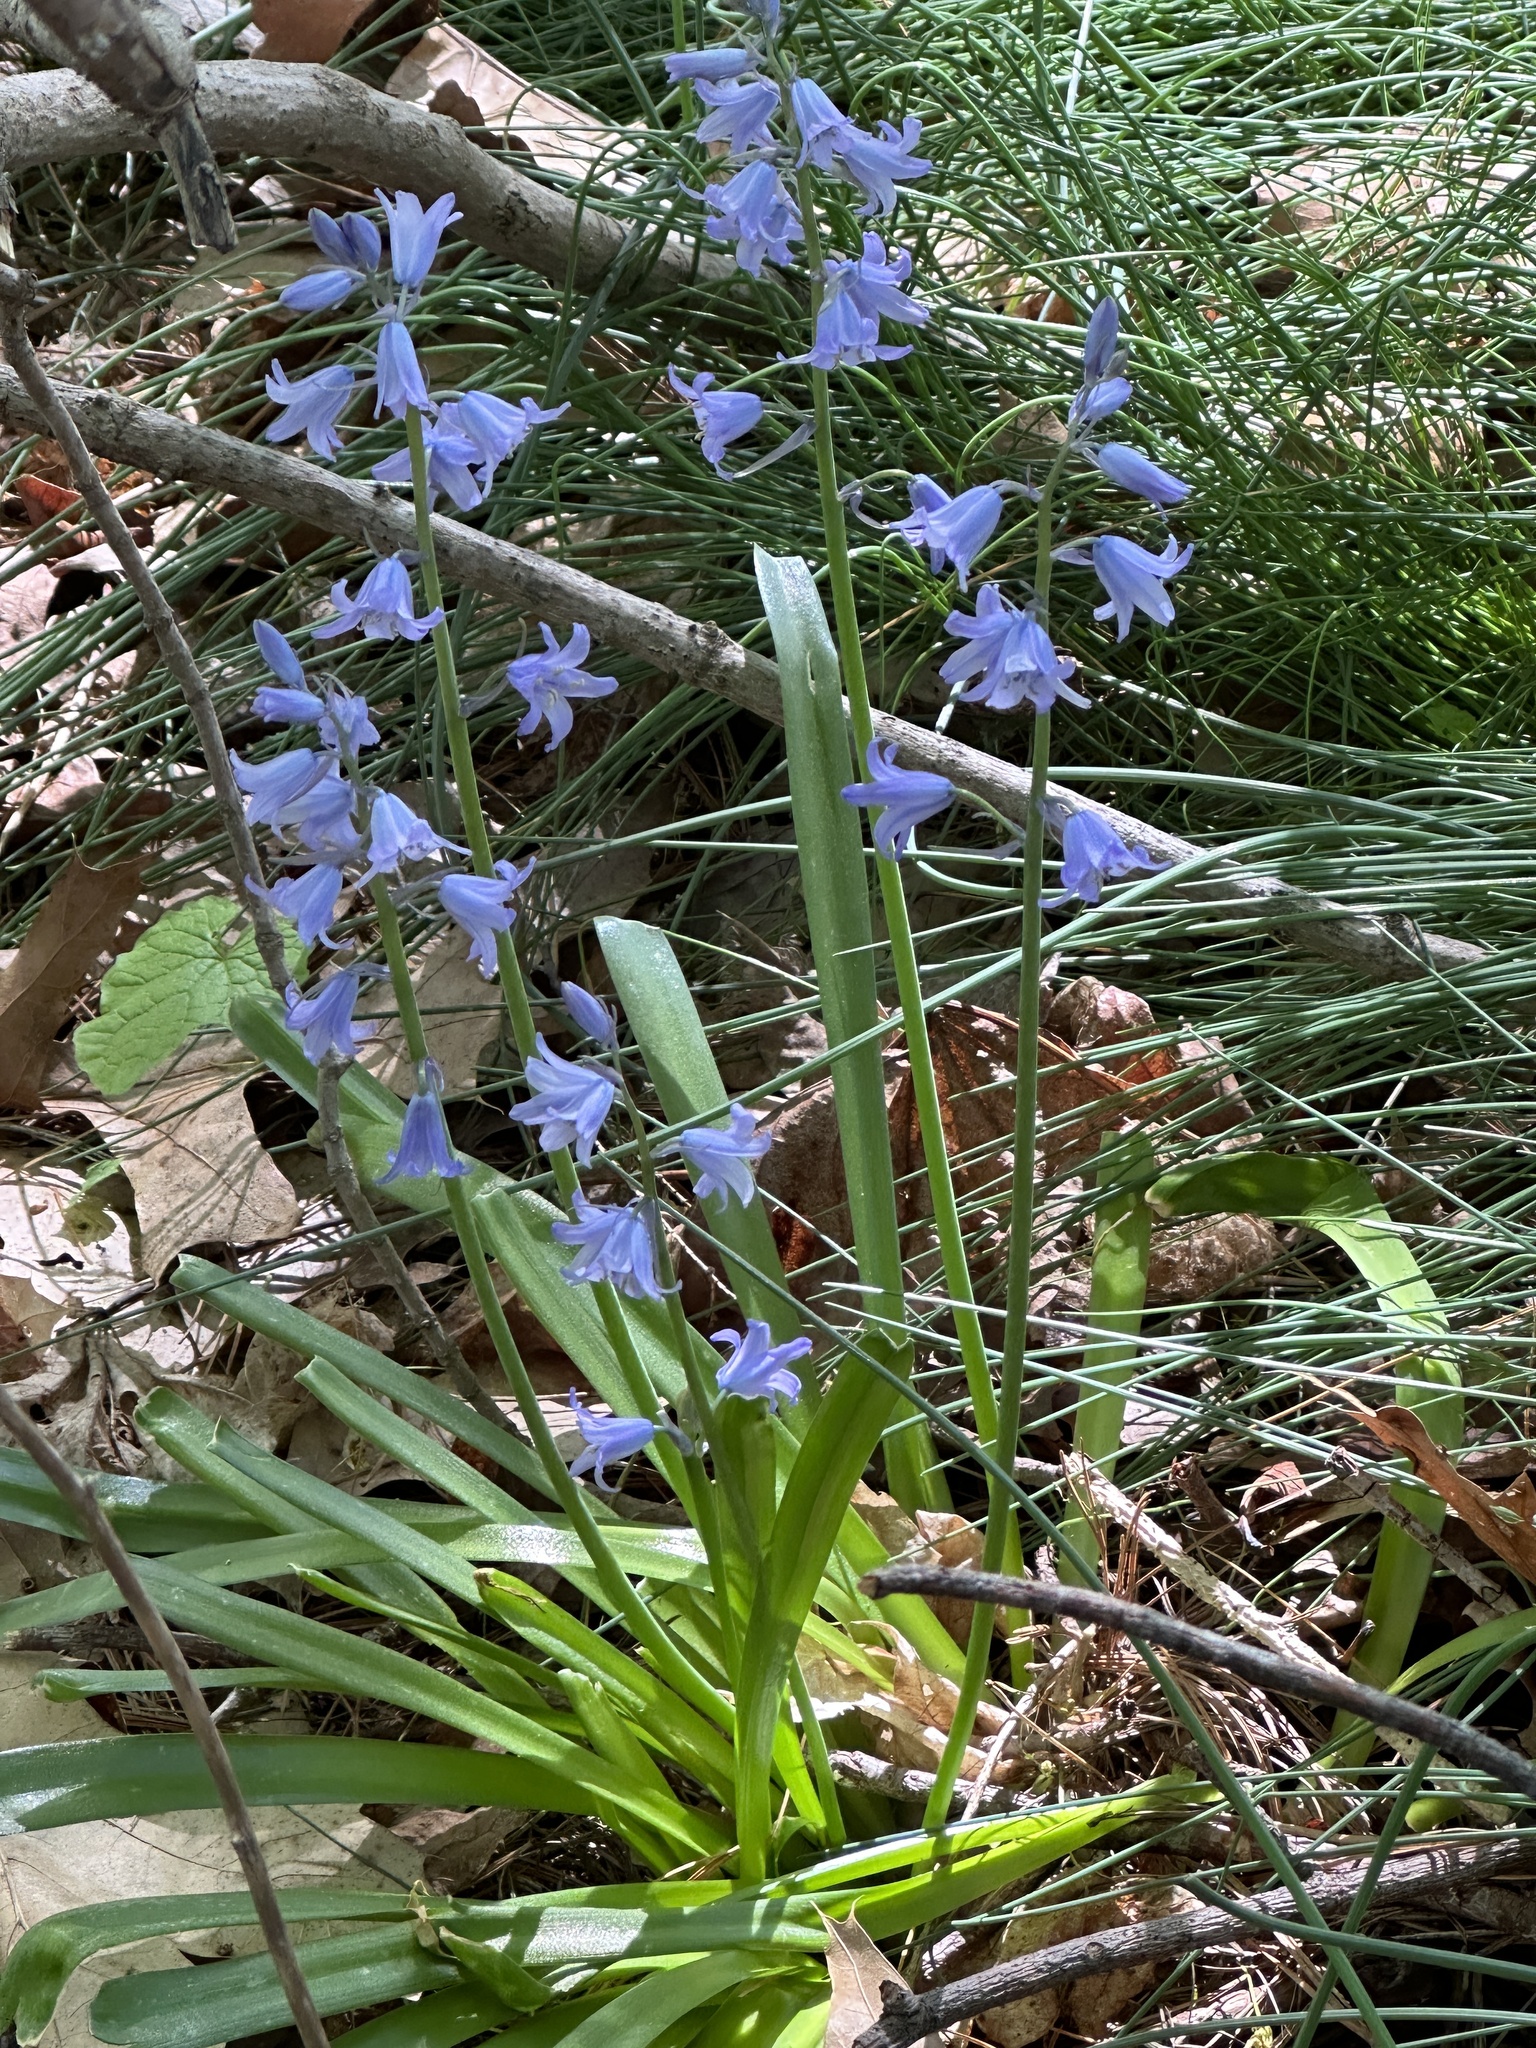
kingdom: Plantae
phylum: Tracheophyta
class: Liliopsida
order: Asparagales
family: Asparagaceae
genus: Hyacinthoides
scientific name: Hyacinthoides hispanica
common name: Spanish bluebell
